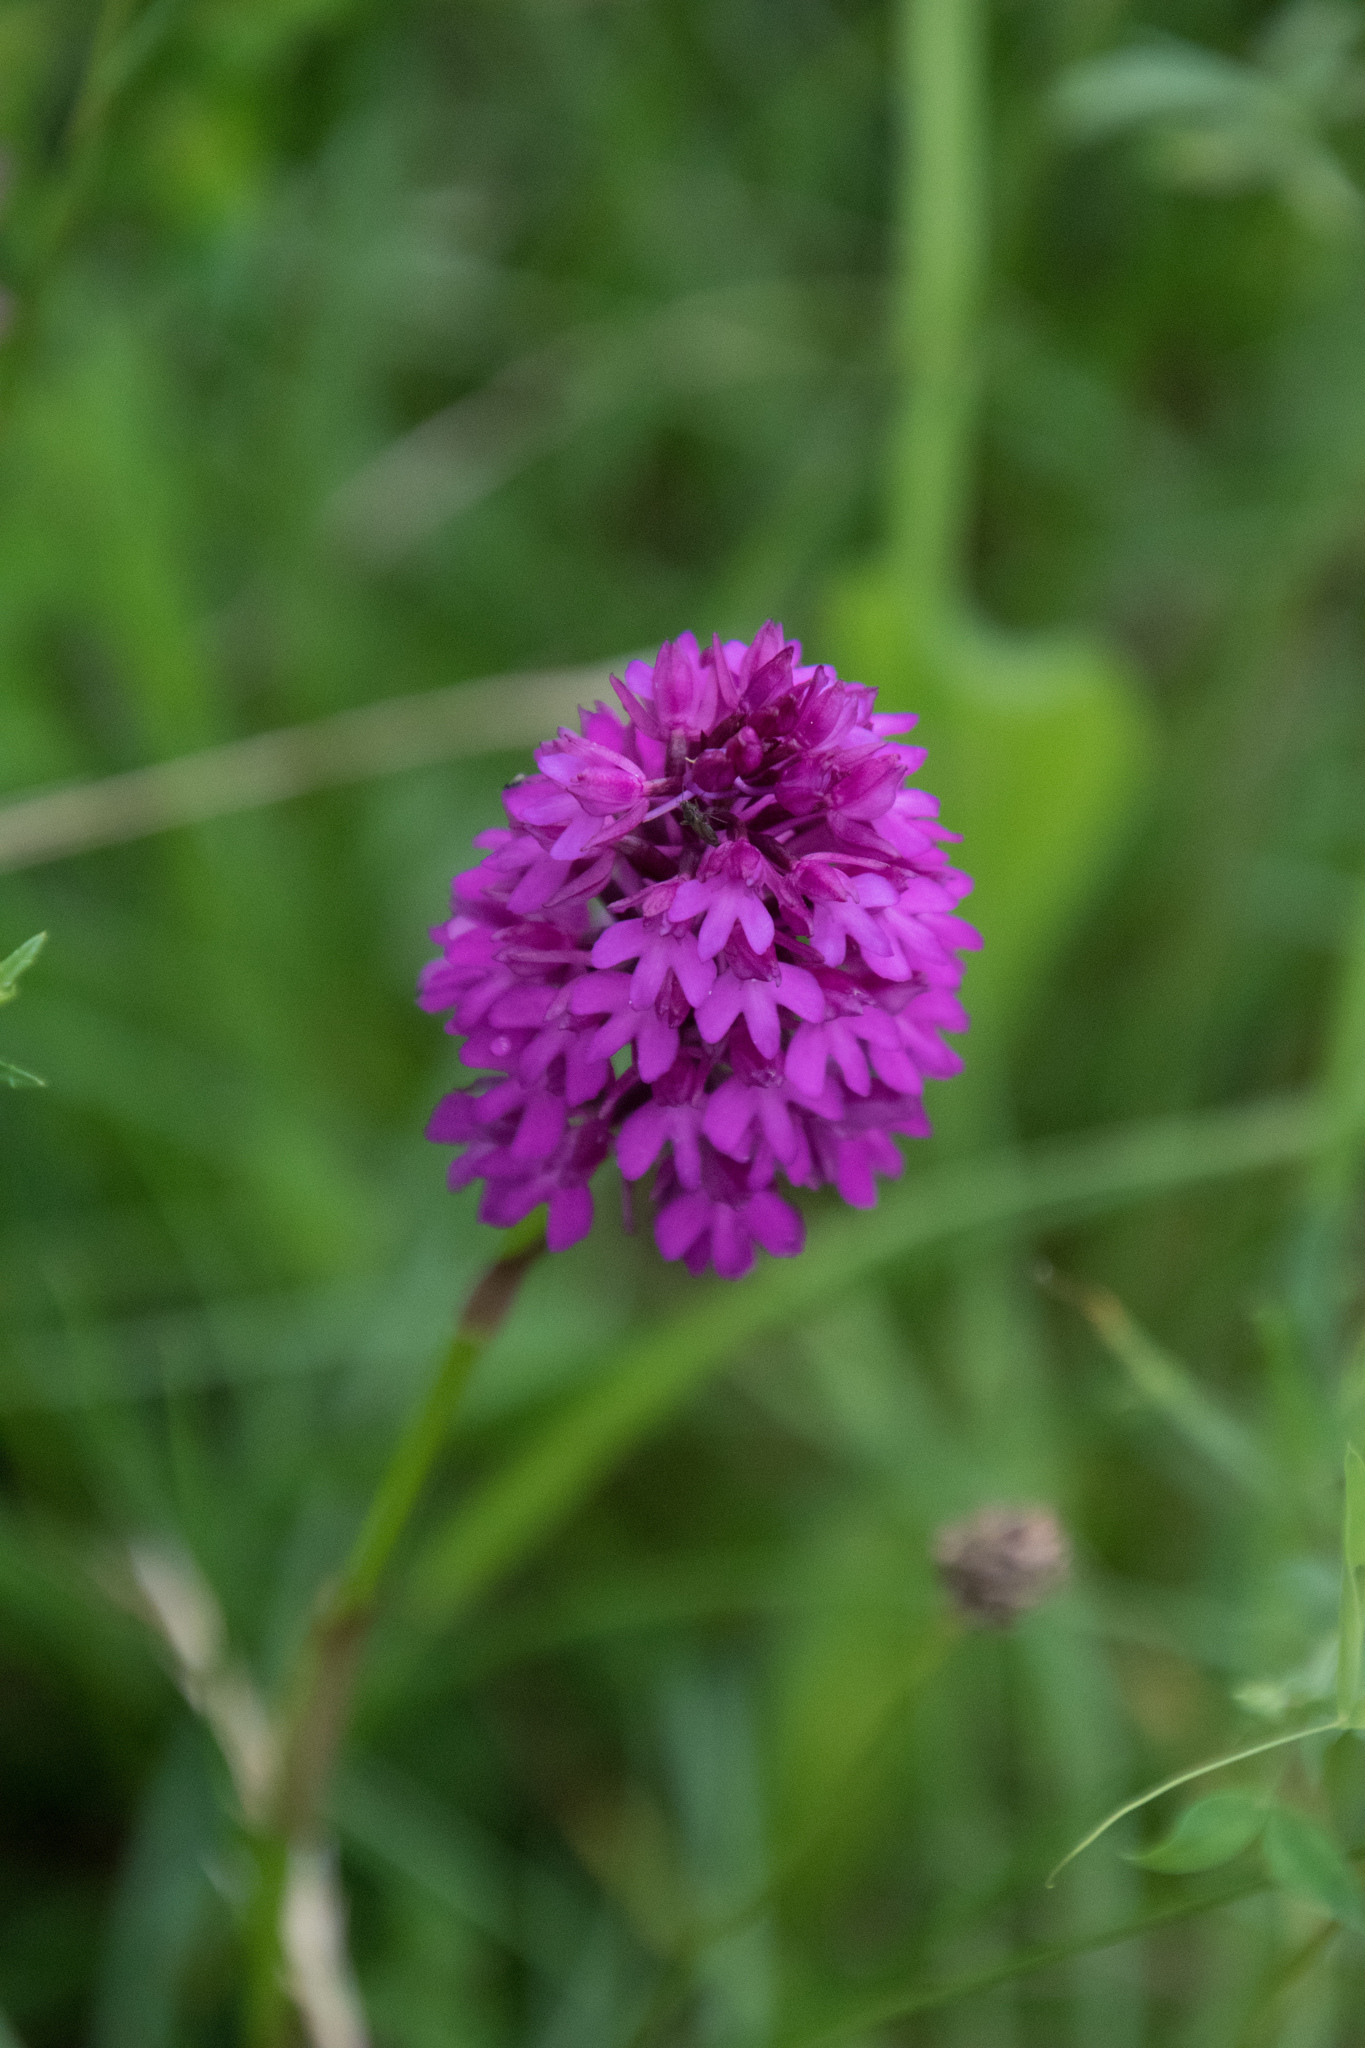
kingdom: Plantae
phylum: Tracheophyta
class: Liliopsida
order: Asparagales
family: Orchidaceae
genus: Anacamptis
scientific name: Anacamptis pyramidalis
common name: Pyramidal orchid
